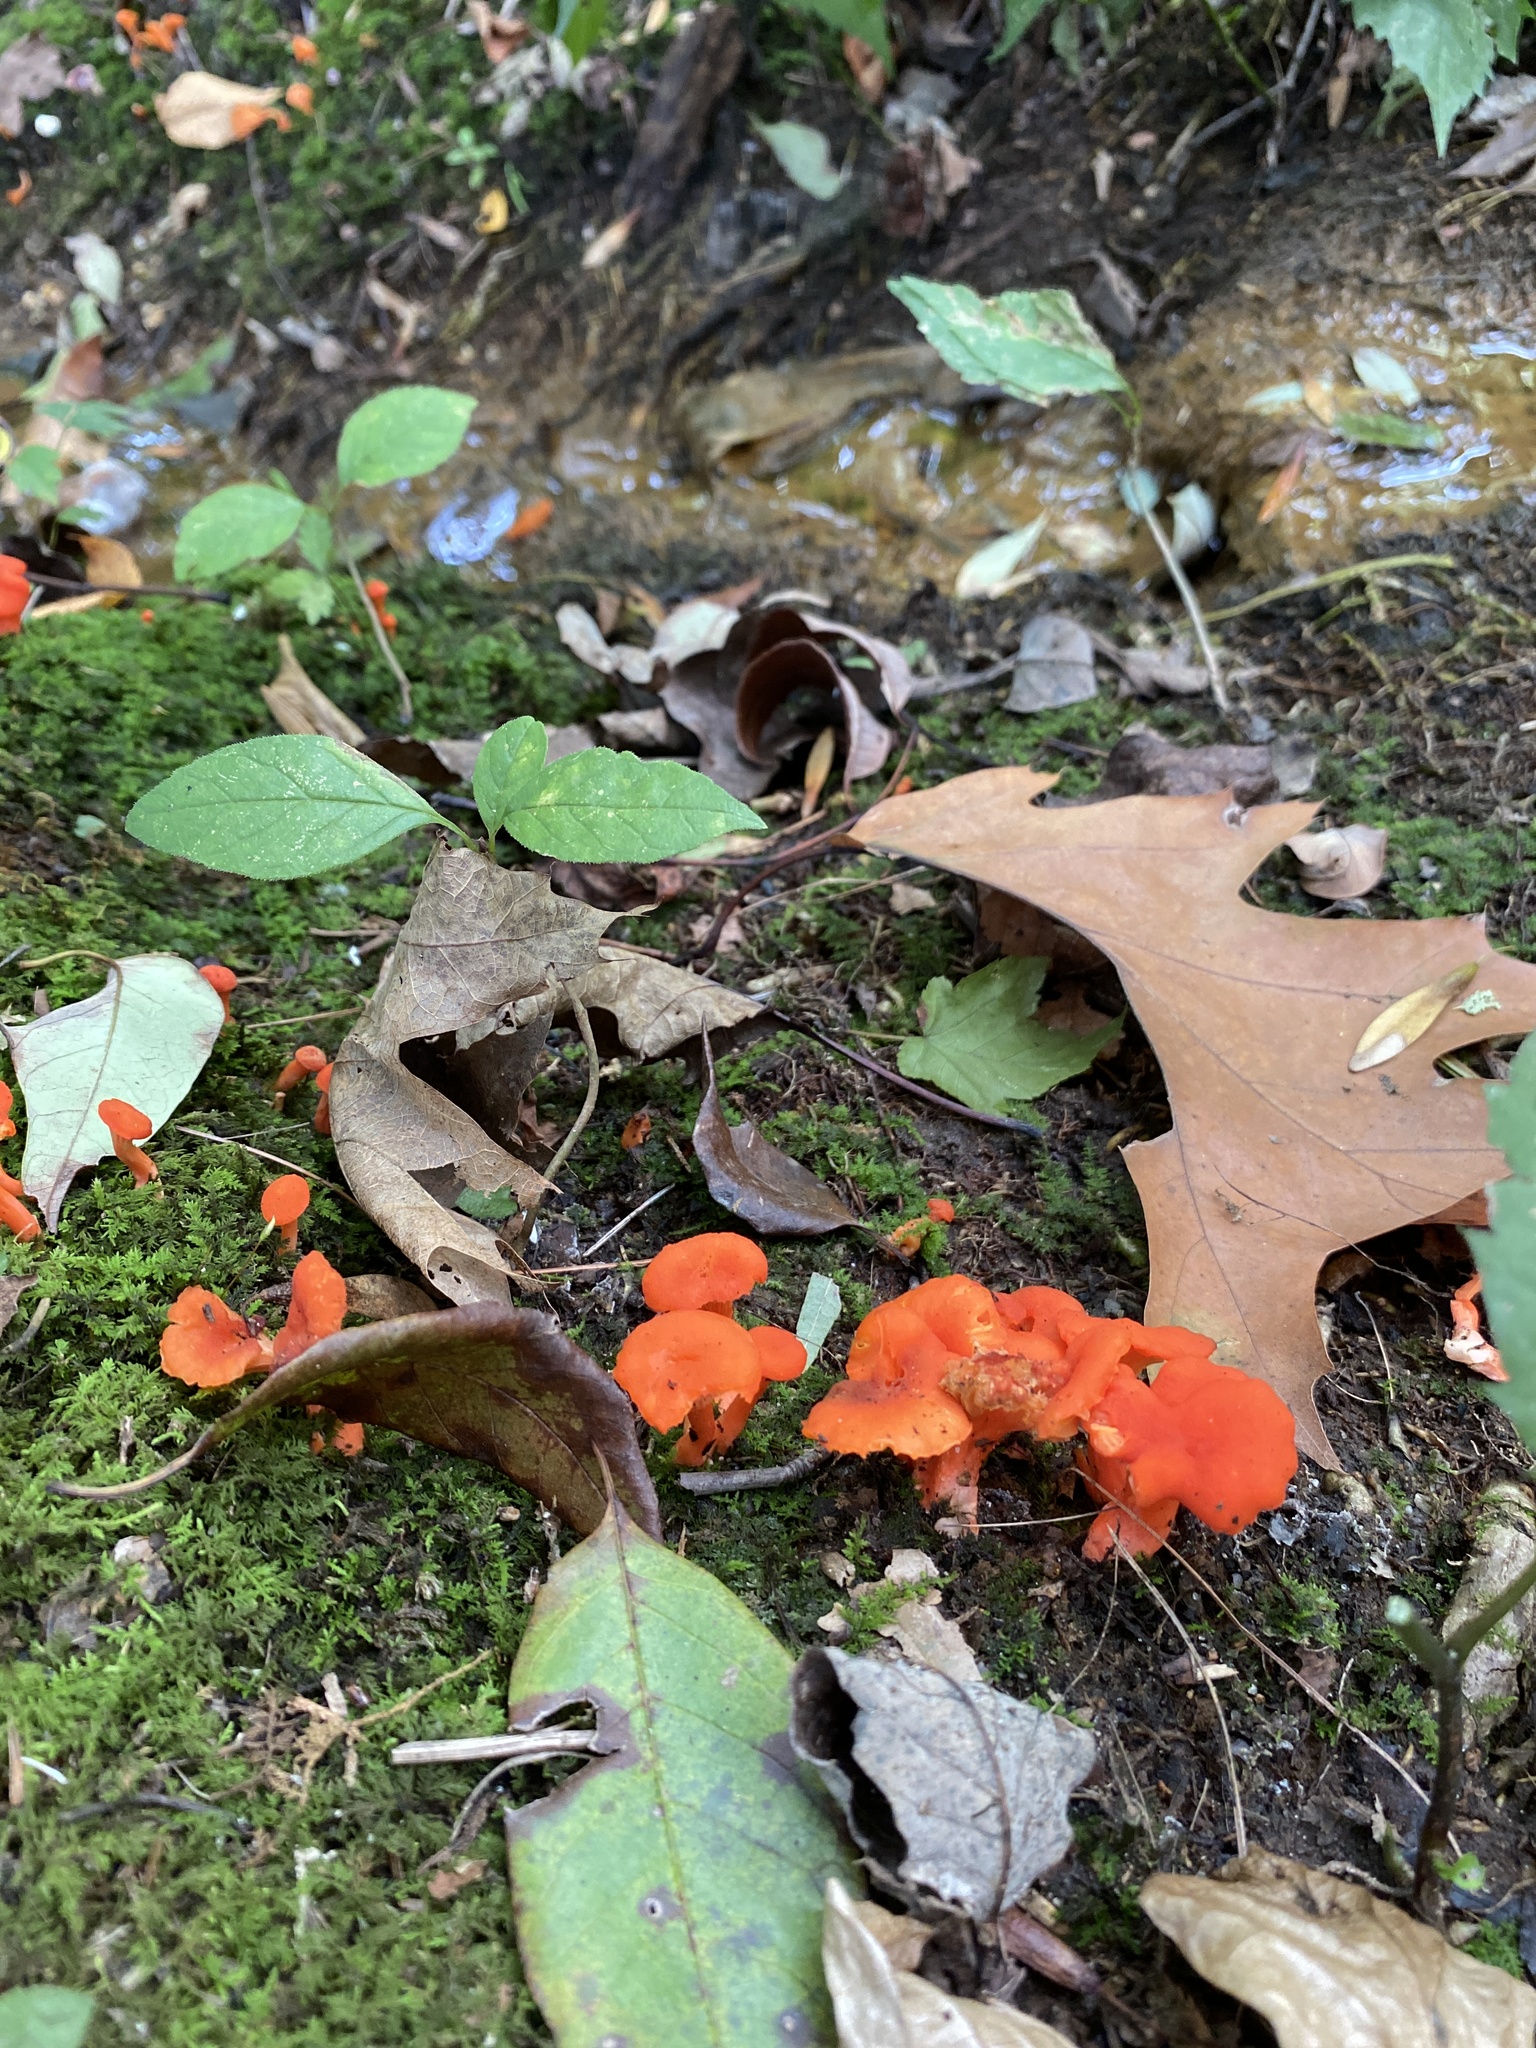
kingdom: Fungi
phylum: Basidiomycota
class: Agaricomycetes
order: Cantharellales
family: Hydnaceae
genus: Cantharellus
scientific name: Cantharellus cinnabarinus
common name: Cinnabar chanterelle
